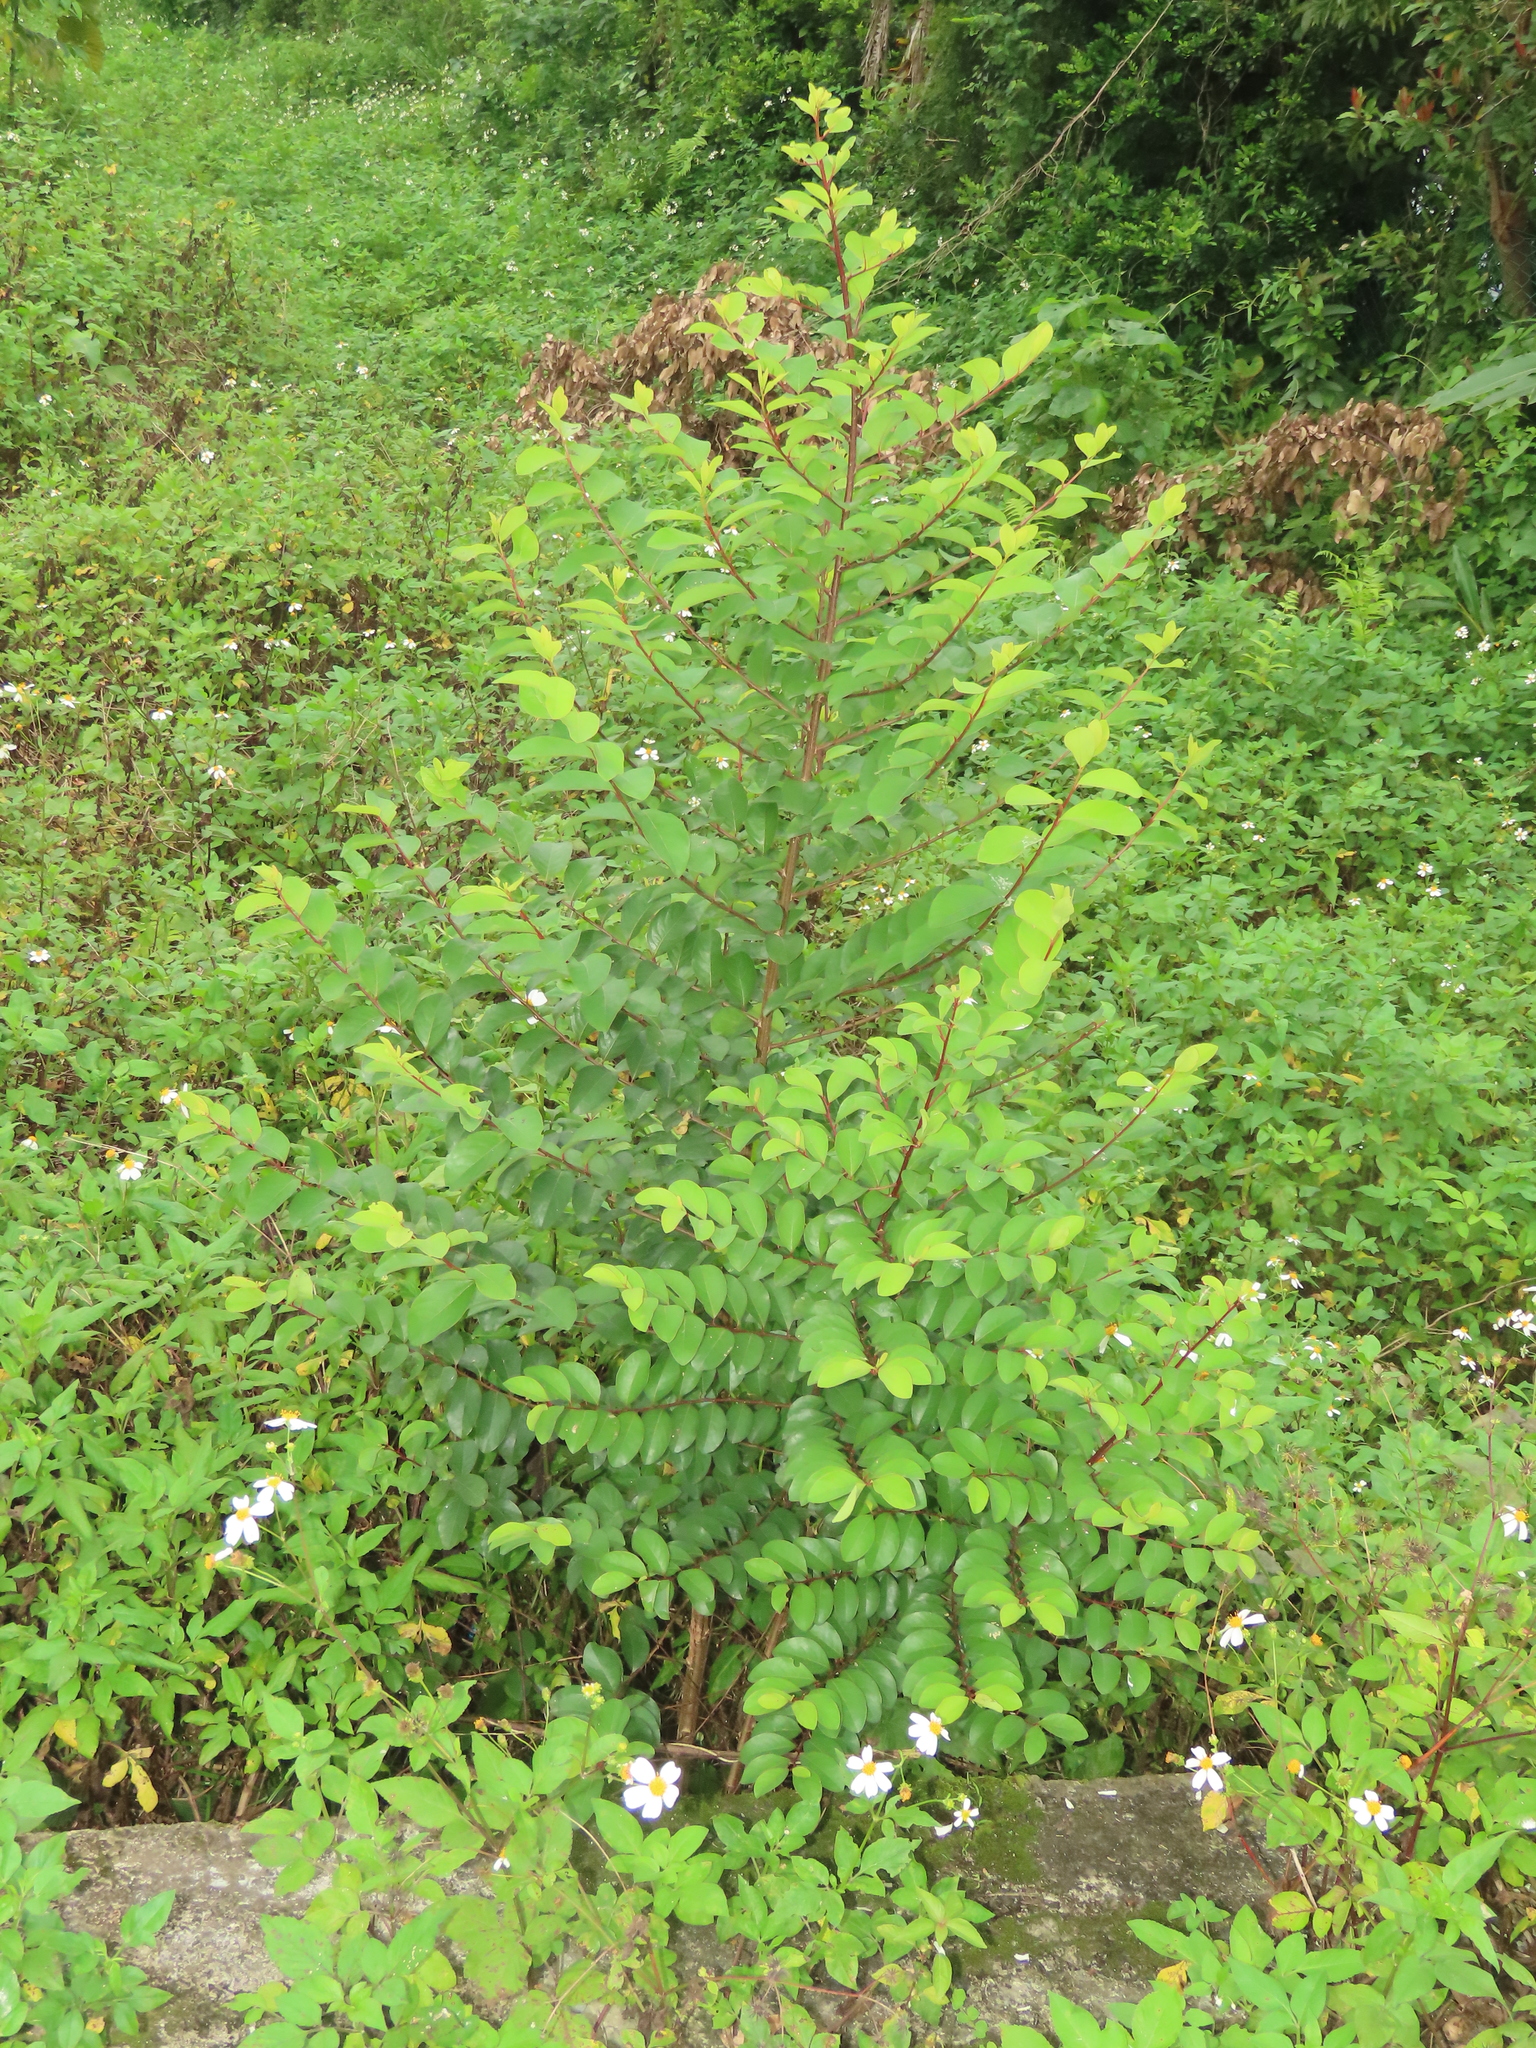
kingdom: Plantae
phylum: Tracheophyta
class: Magnoliopsida
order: Malpighiales
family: Phyllanthaceae
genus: Flueggea
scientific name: Flueggea virosa
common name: Common bushweed
